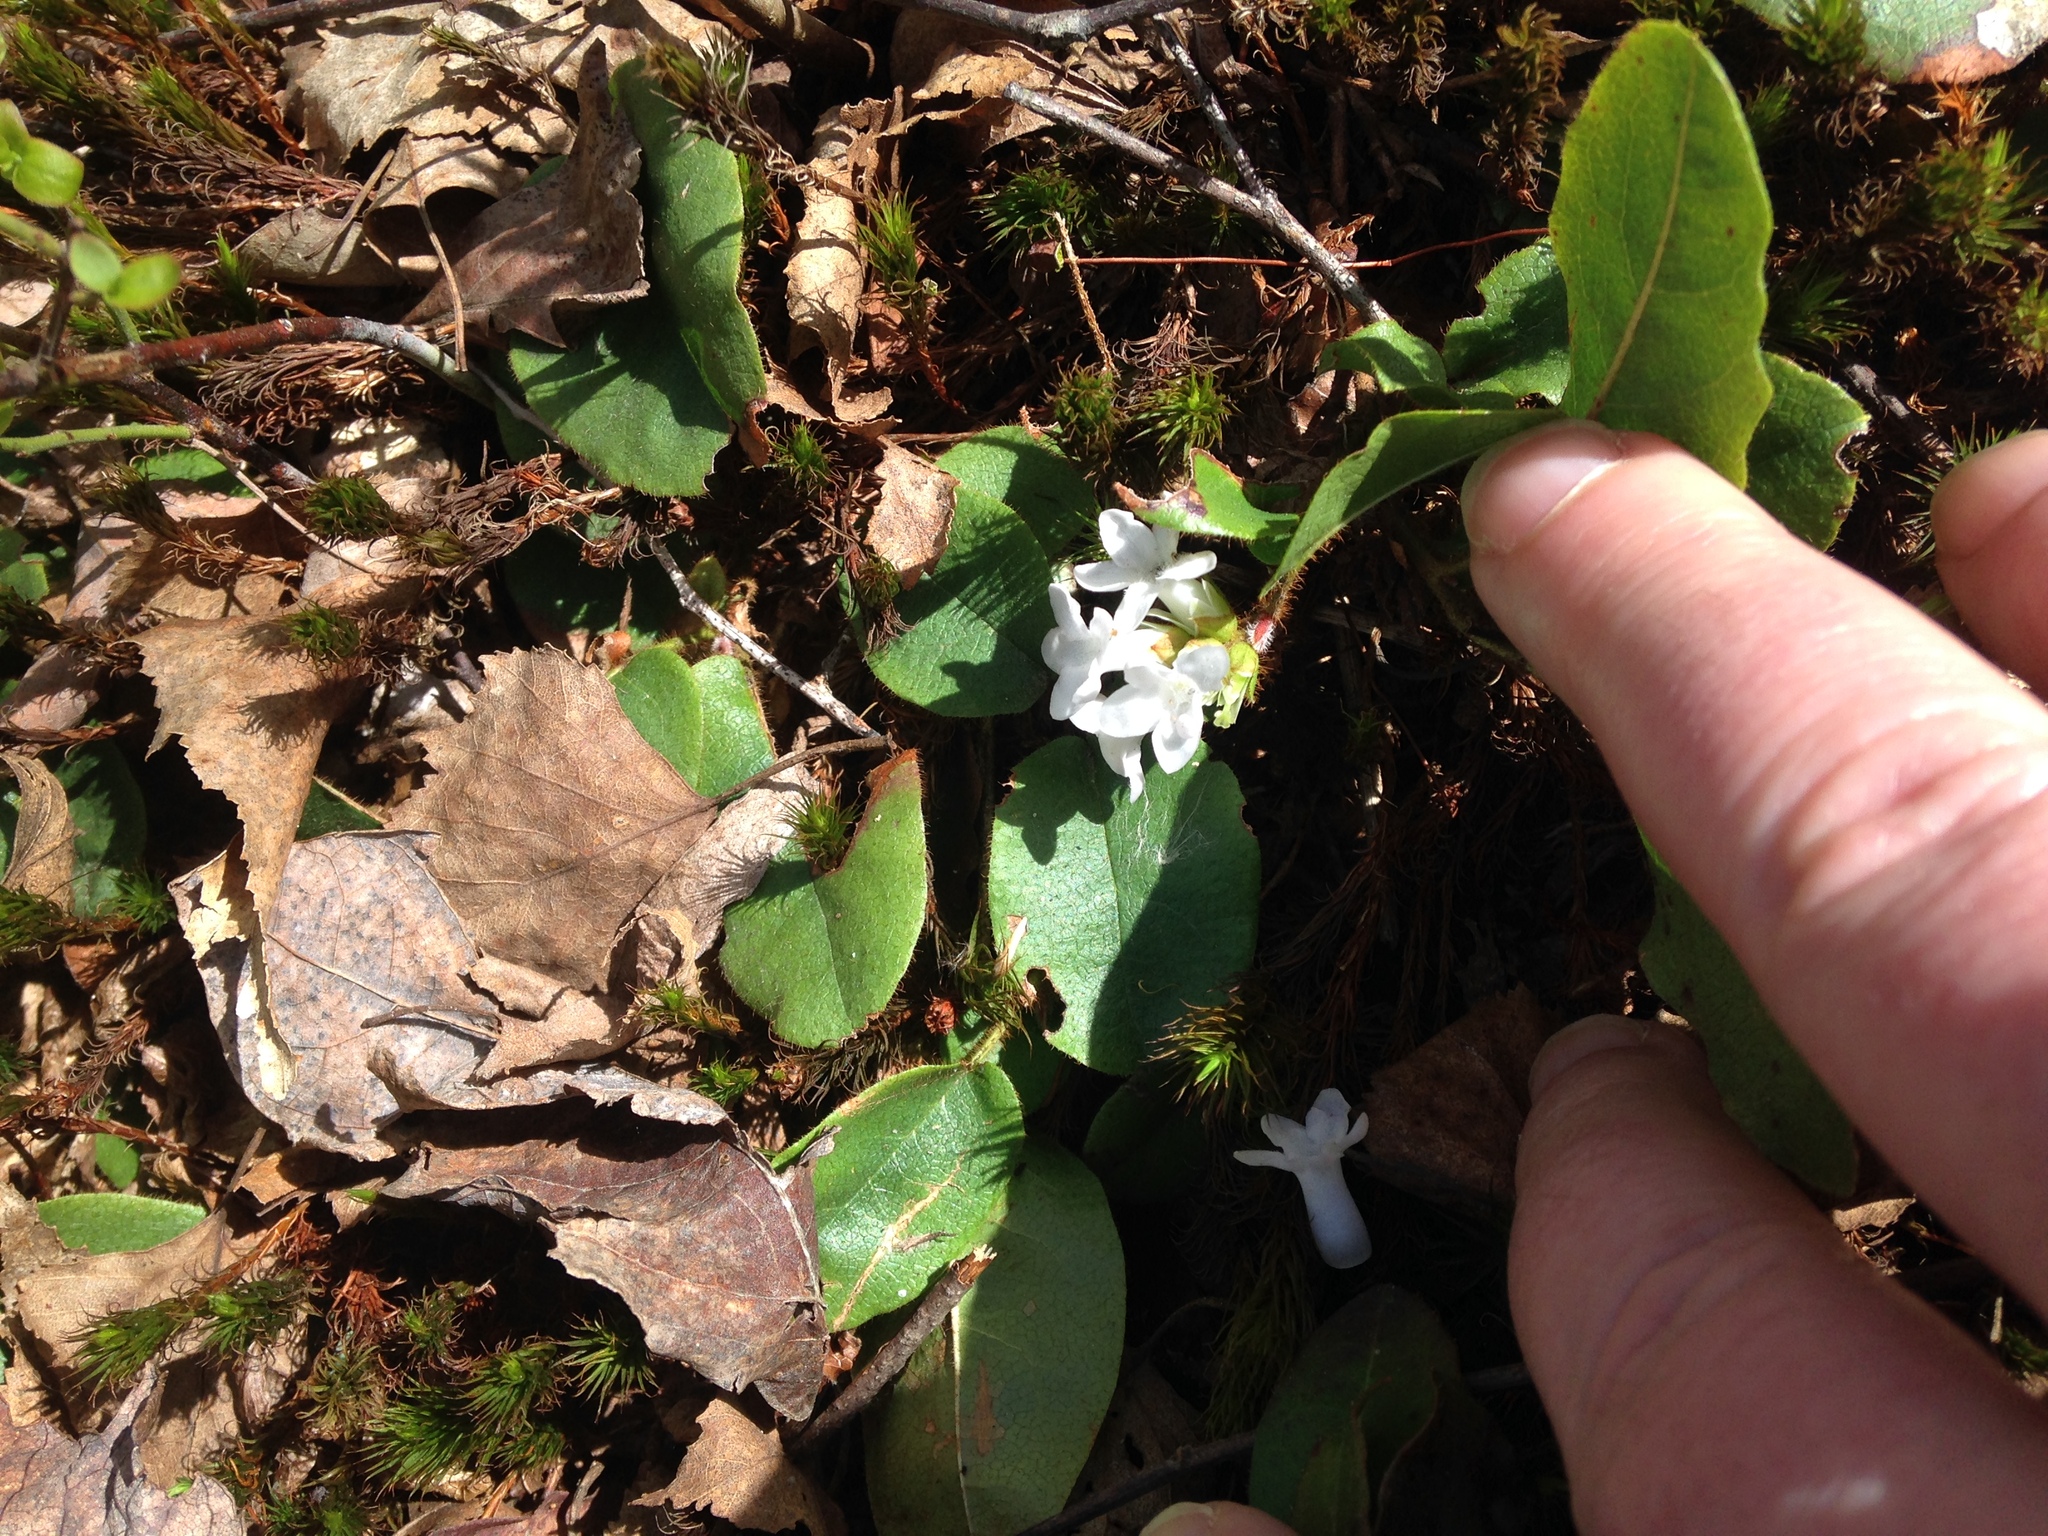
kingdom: Plantae
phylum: Tracheophyta
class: Magnoliopsida
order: Ericales
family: Ericaceae
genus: Epigaea
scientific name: Epigaea repens
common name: Gravelroot
